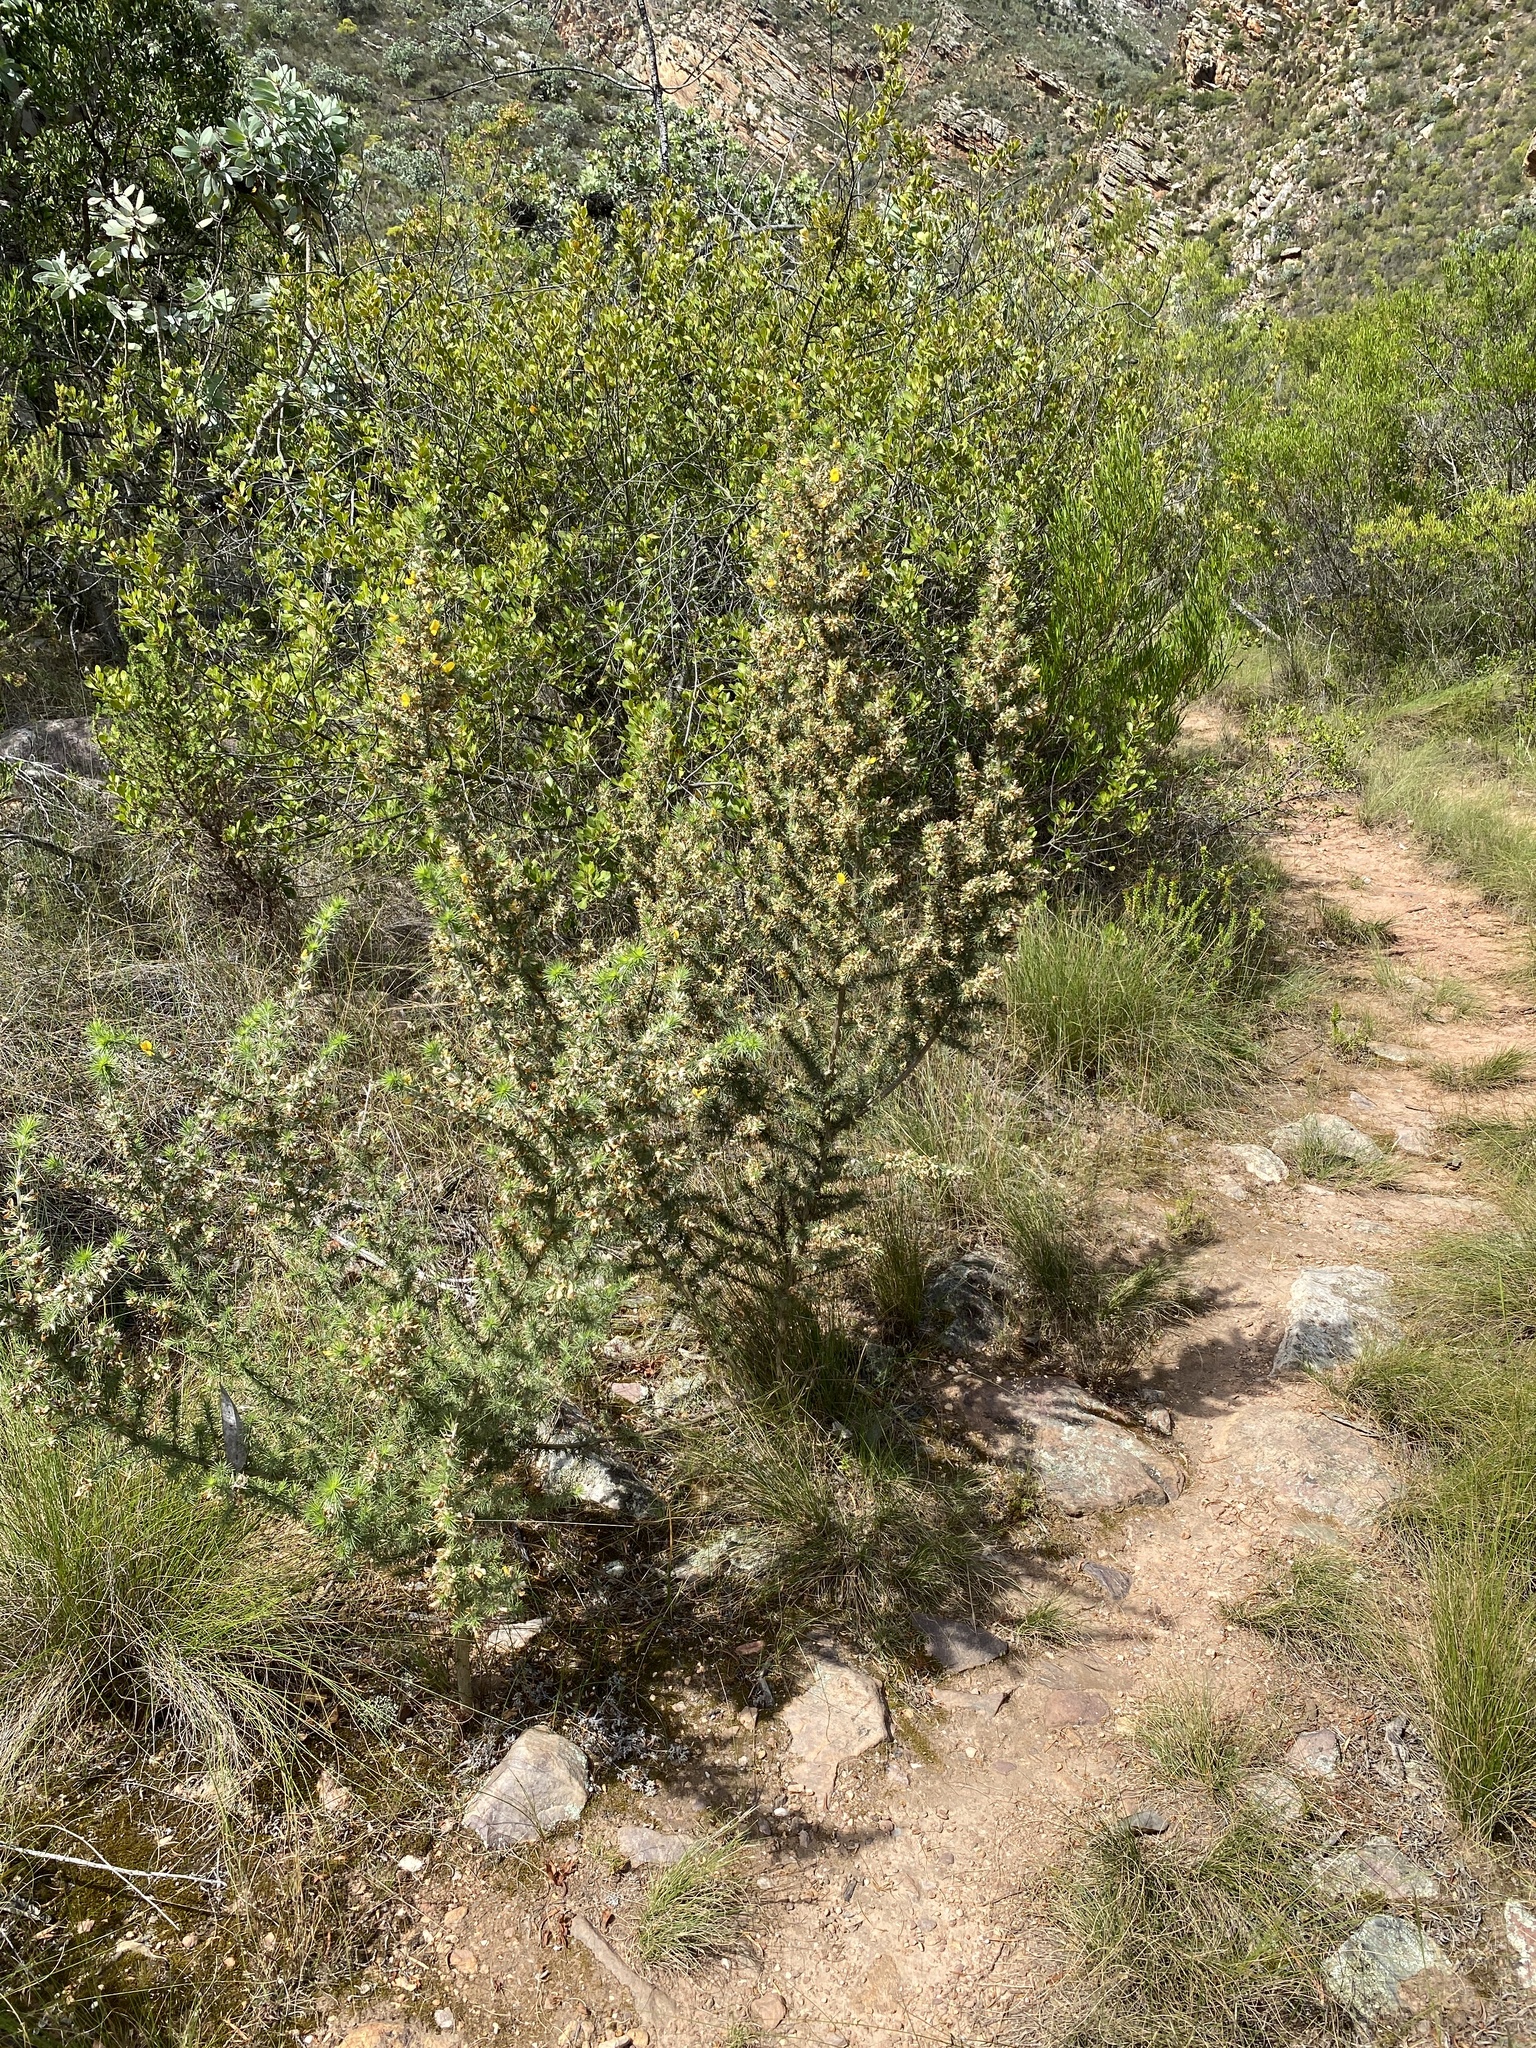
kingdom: Plantae
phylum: Tracheophyta
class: Magnoliopsida
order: Fabales
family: Fabaceae
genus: Aspalathus
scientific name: Aspalathus hirta
